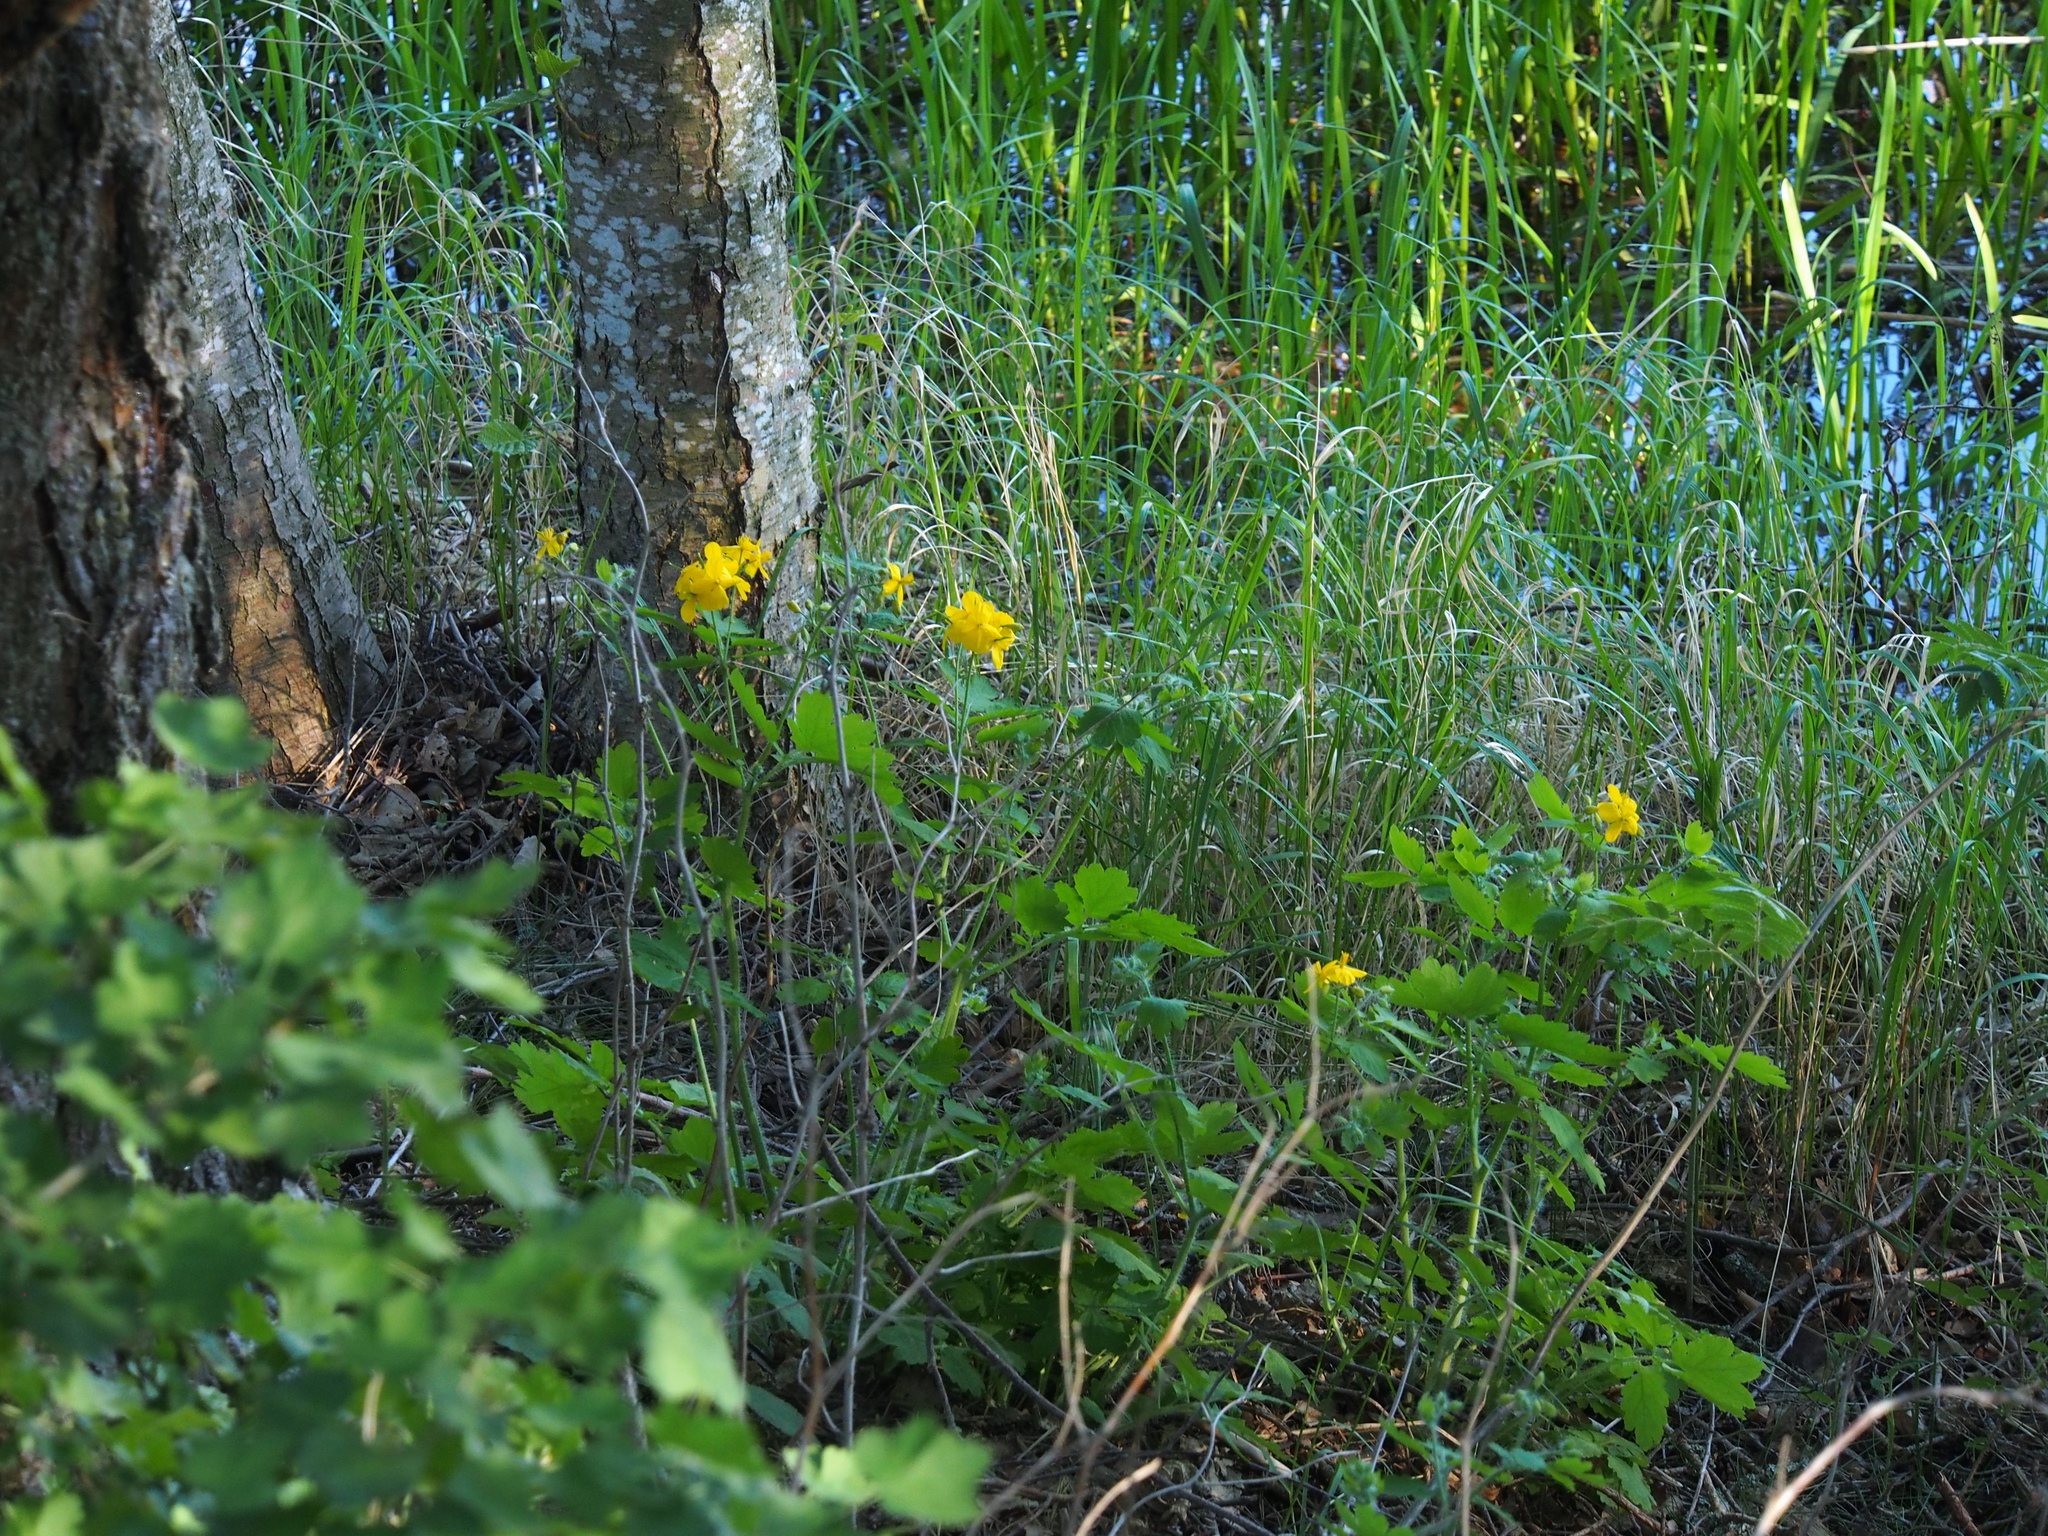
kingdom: Plantae
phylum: Tracheophyta
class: Magnoliopsida
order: Ranunculales
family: Papaveraceae
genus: Chelidonium
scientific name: Chelidonium majus
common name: Greater celandine
